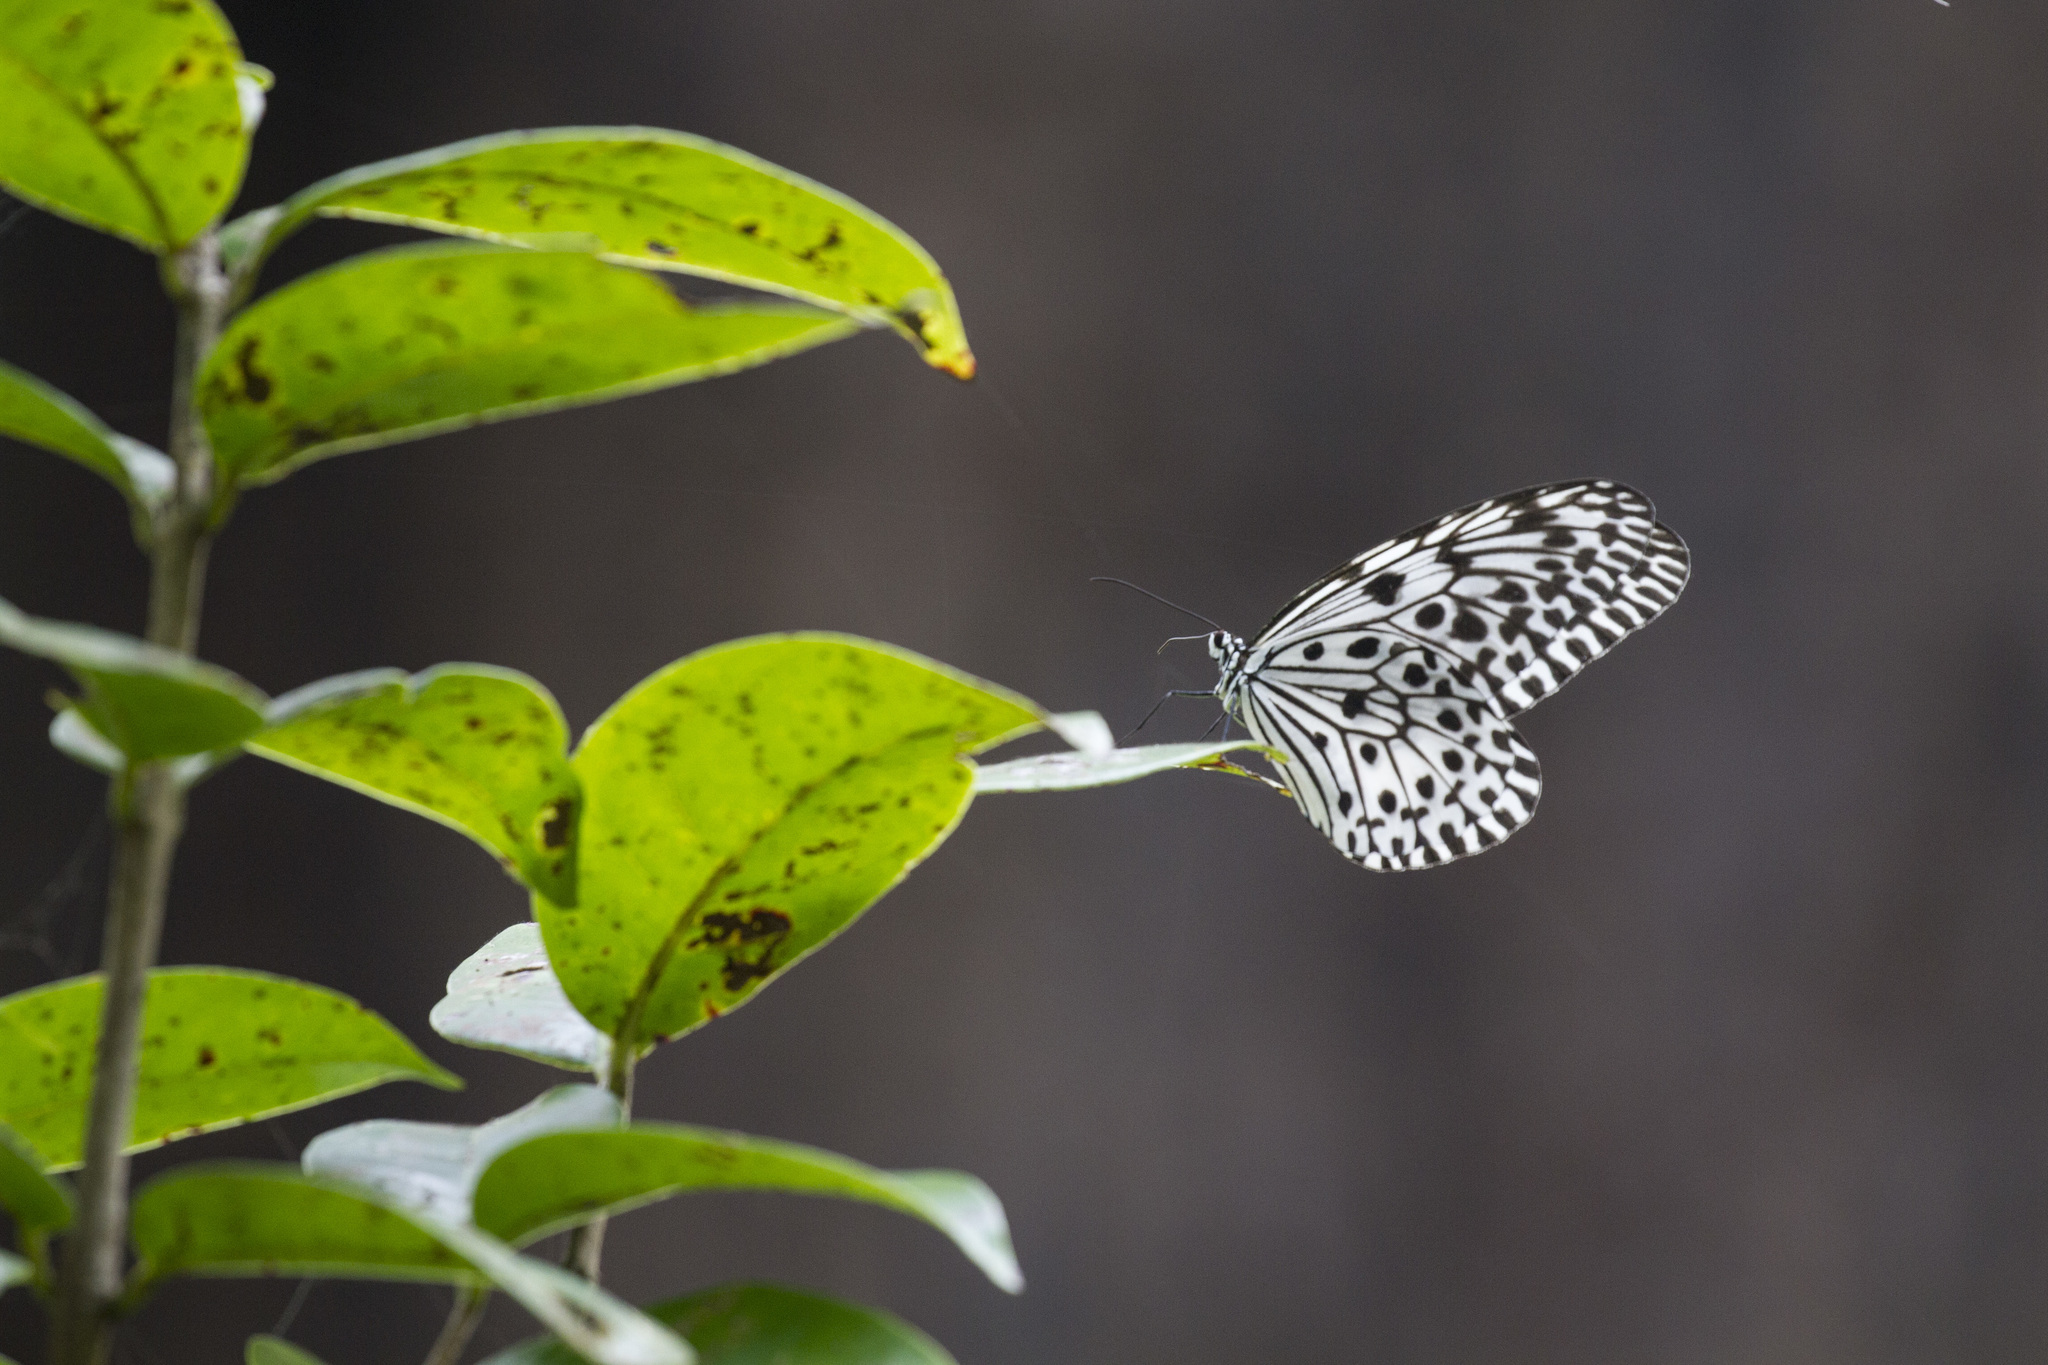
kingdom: Animalia
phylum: Arthropoda
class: Insecta
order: Lepidoptera
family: Nymphalidae
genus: Idea
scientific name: Idea malabarica
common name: Malabar tree-nymph
